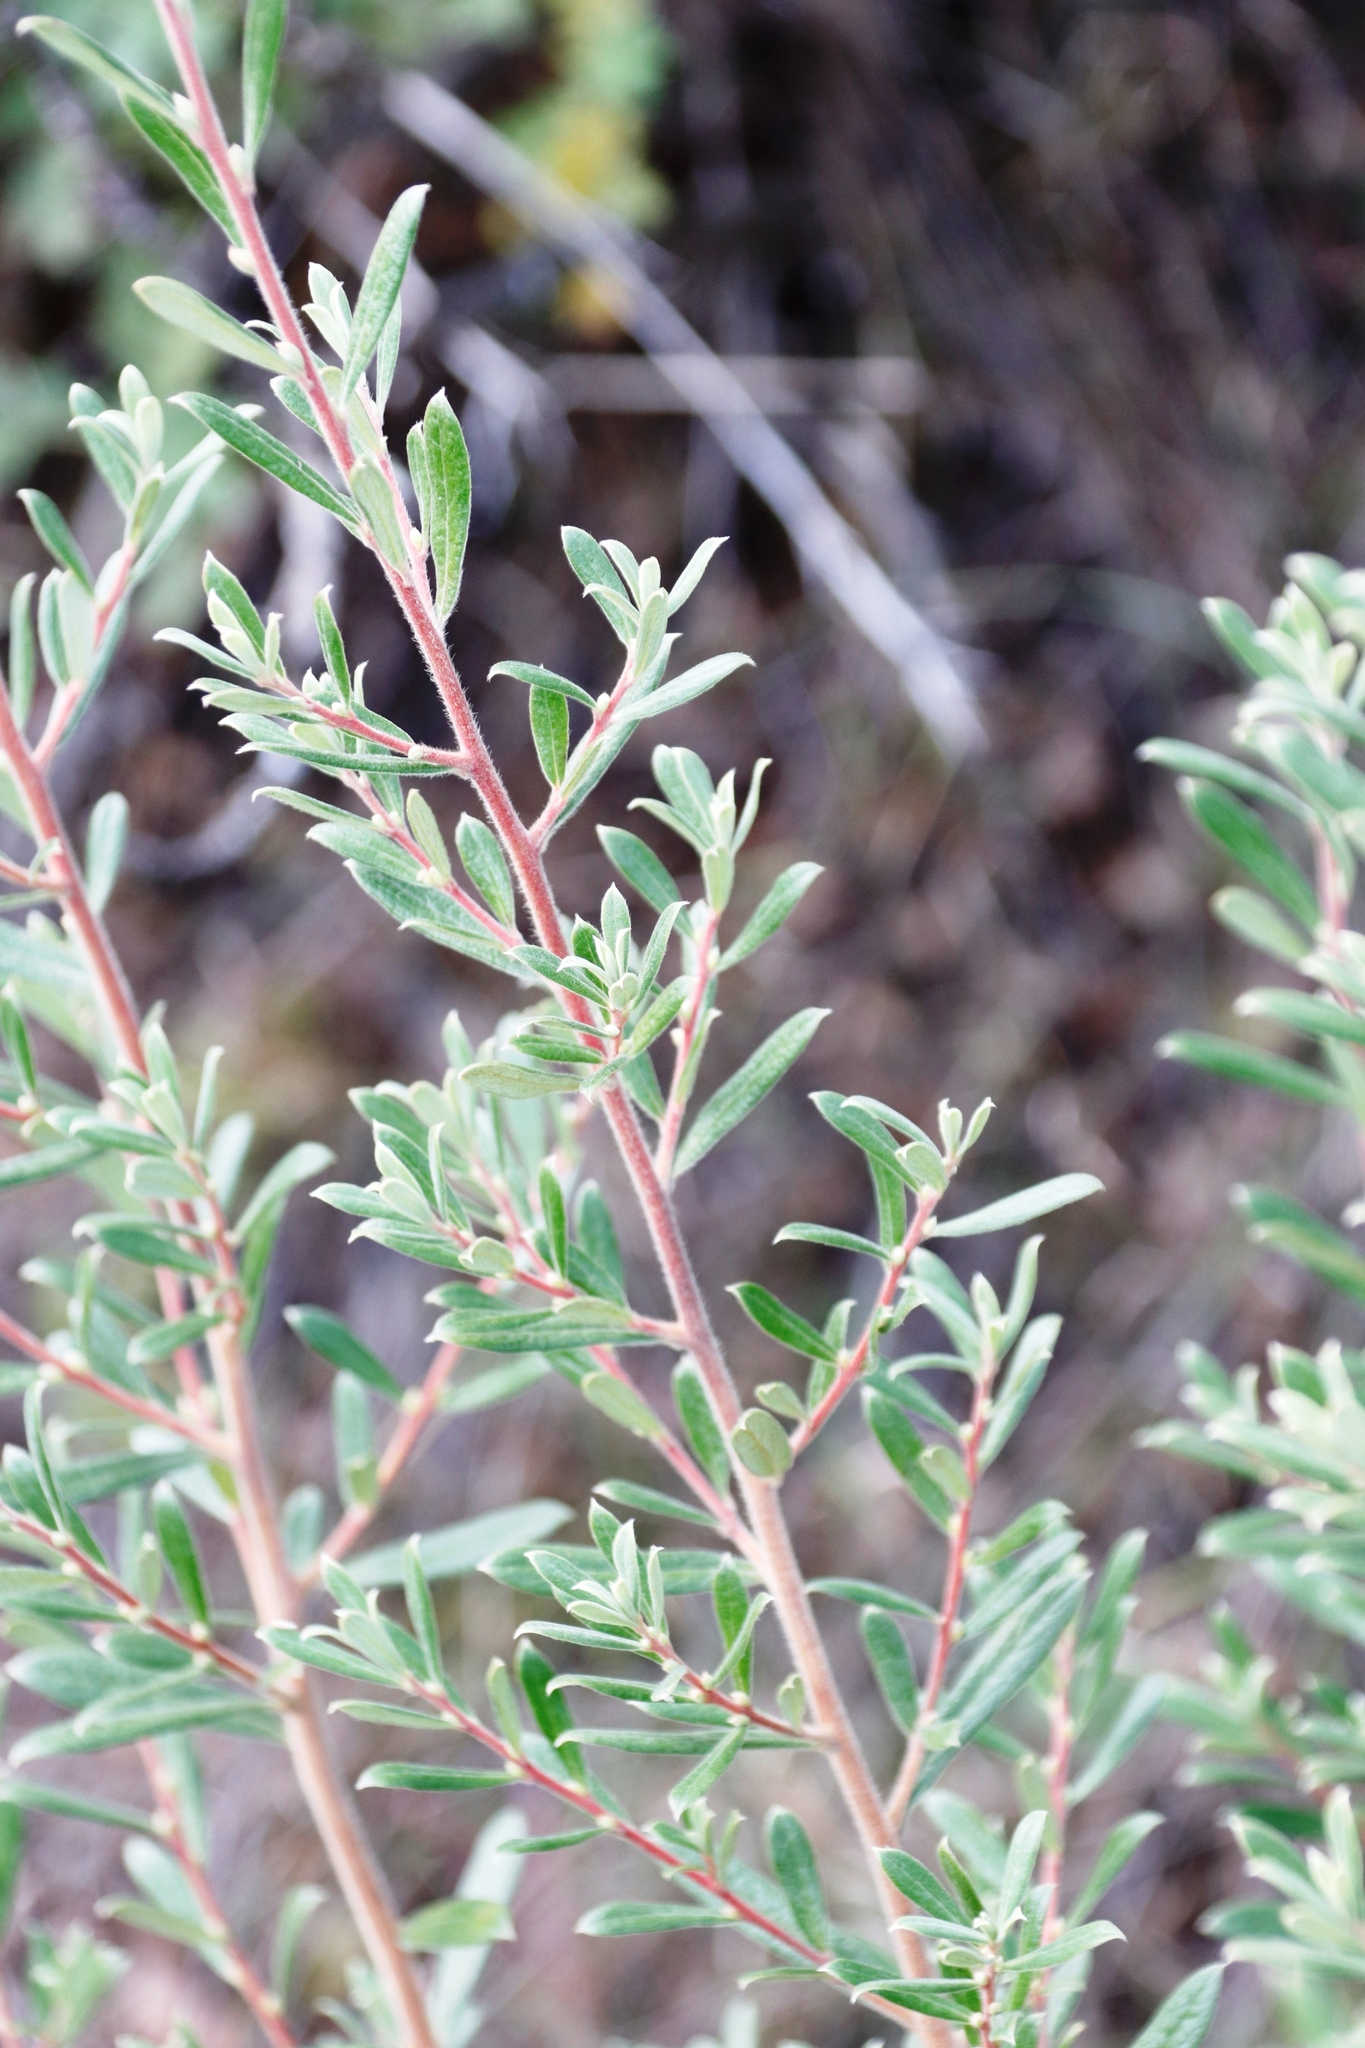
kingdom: Plantae
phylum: Tracheophyta
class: Magnoliopsida
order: Ericales
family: Ebenaceae
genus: Diospyros
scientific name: Diospyros pubescens
